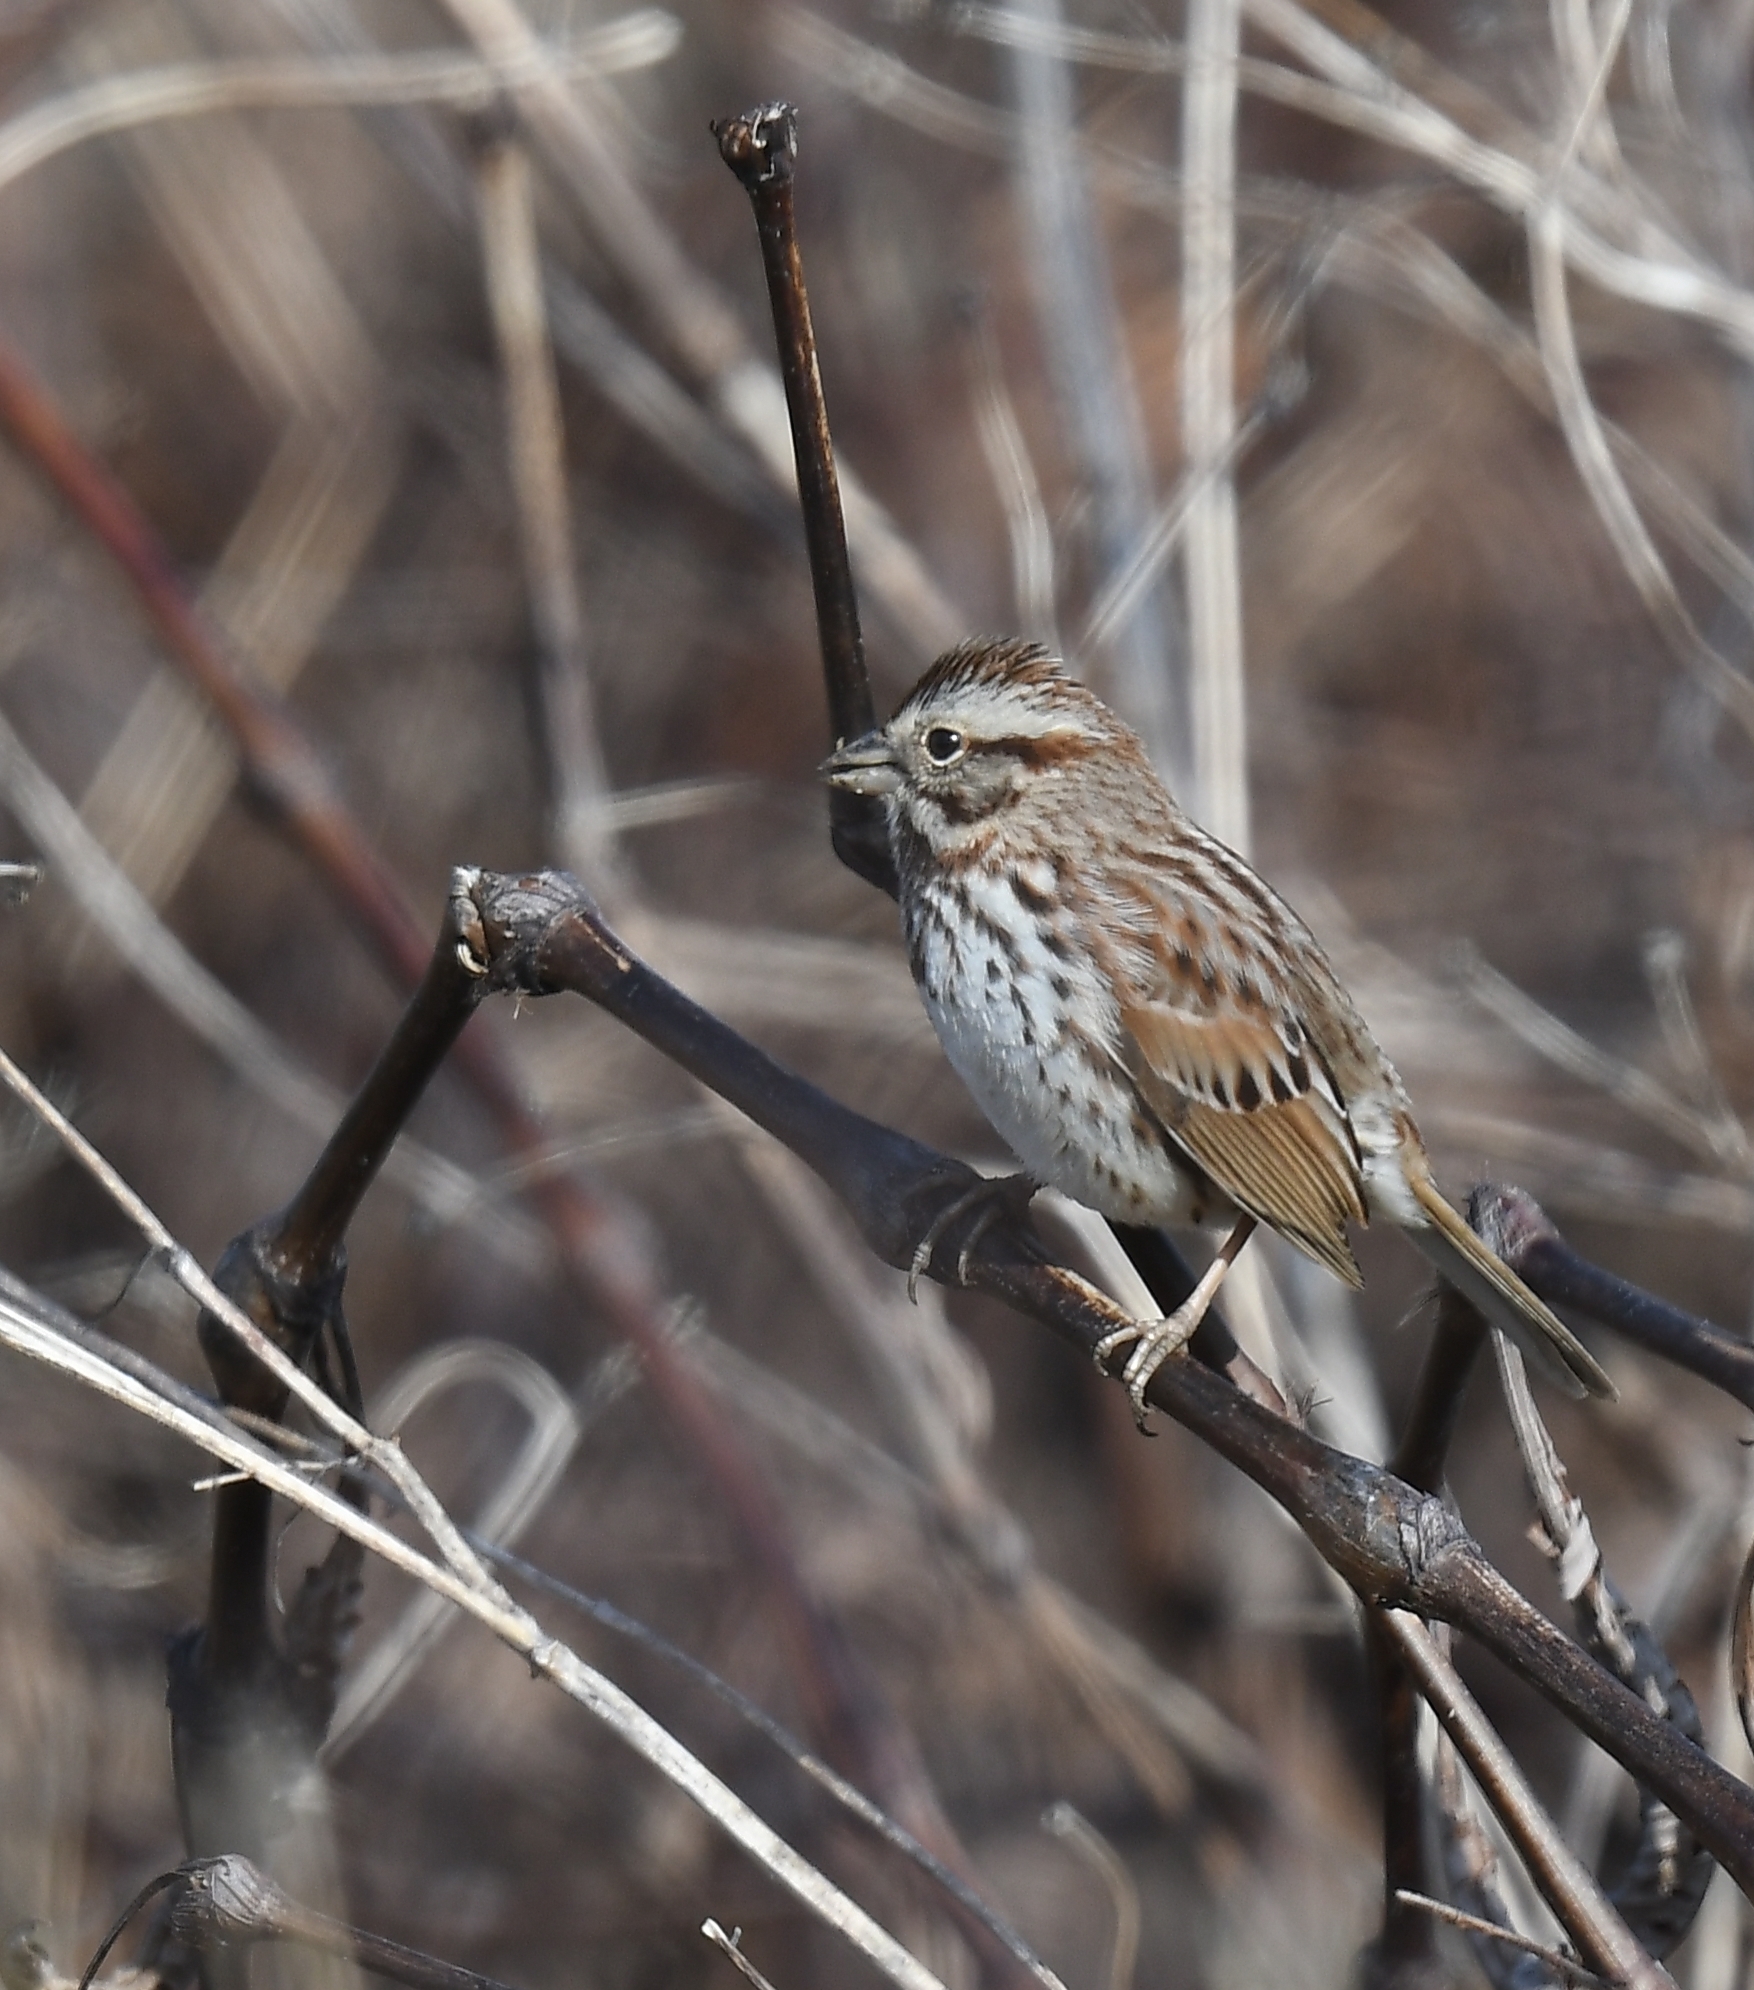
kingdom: Animalia
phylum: Chordata
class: Aves
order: Passeriformes
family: Passerellidae
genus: Melospiza
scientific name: Melospiza melodia
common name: Song sparrow
